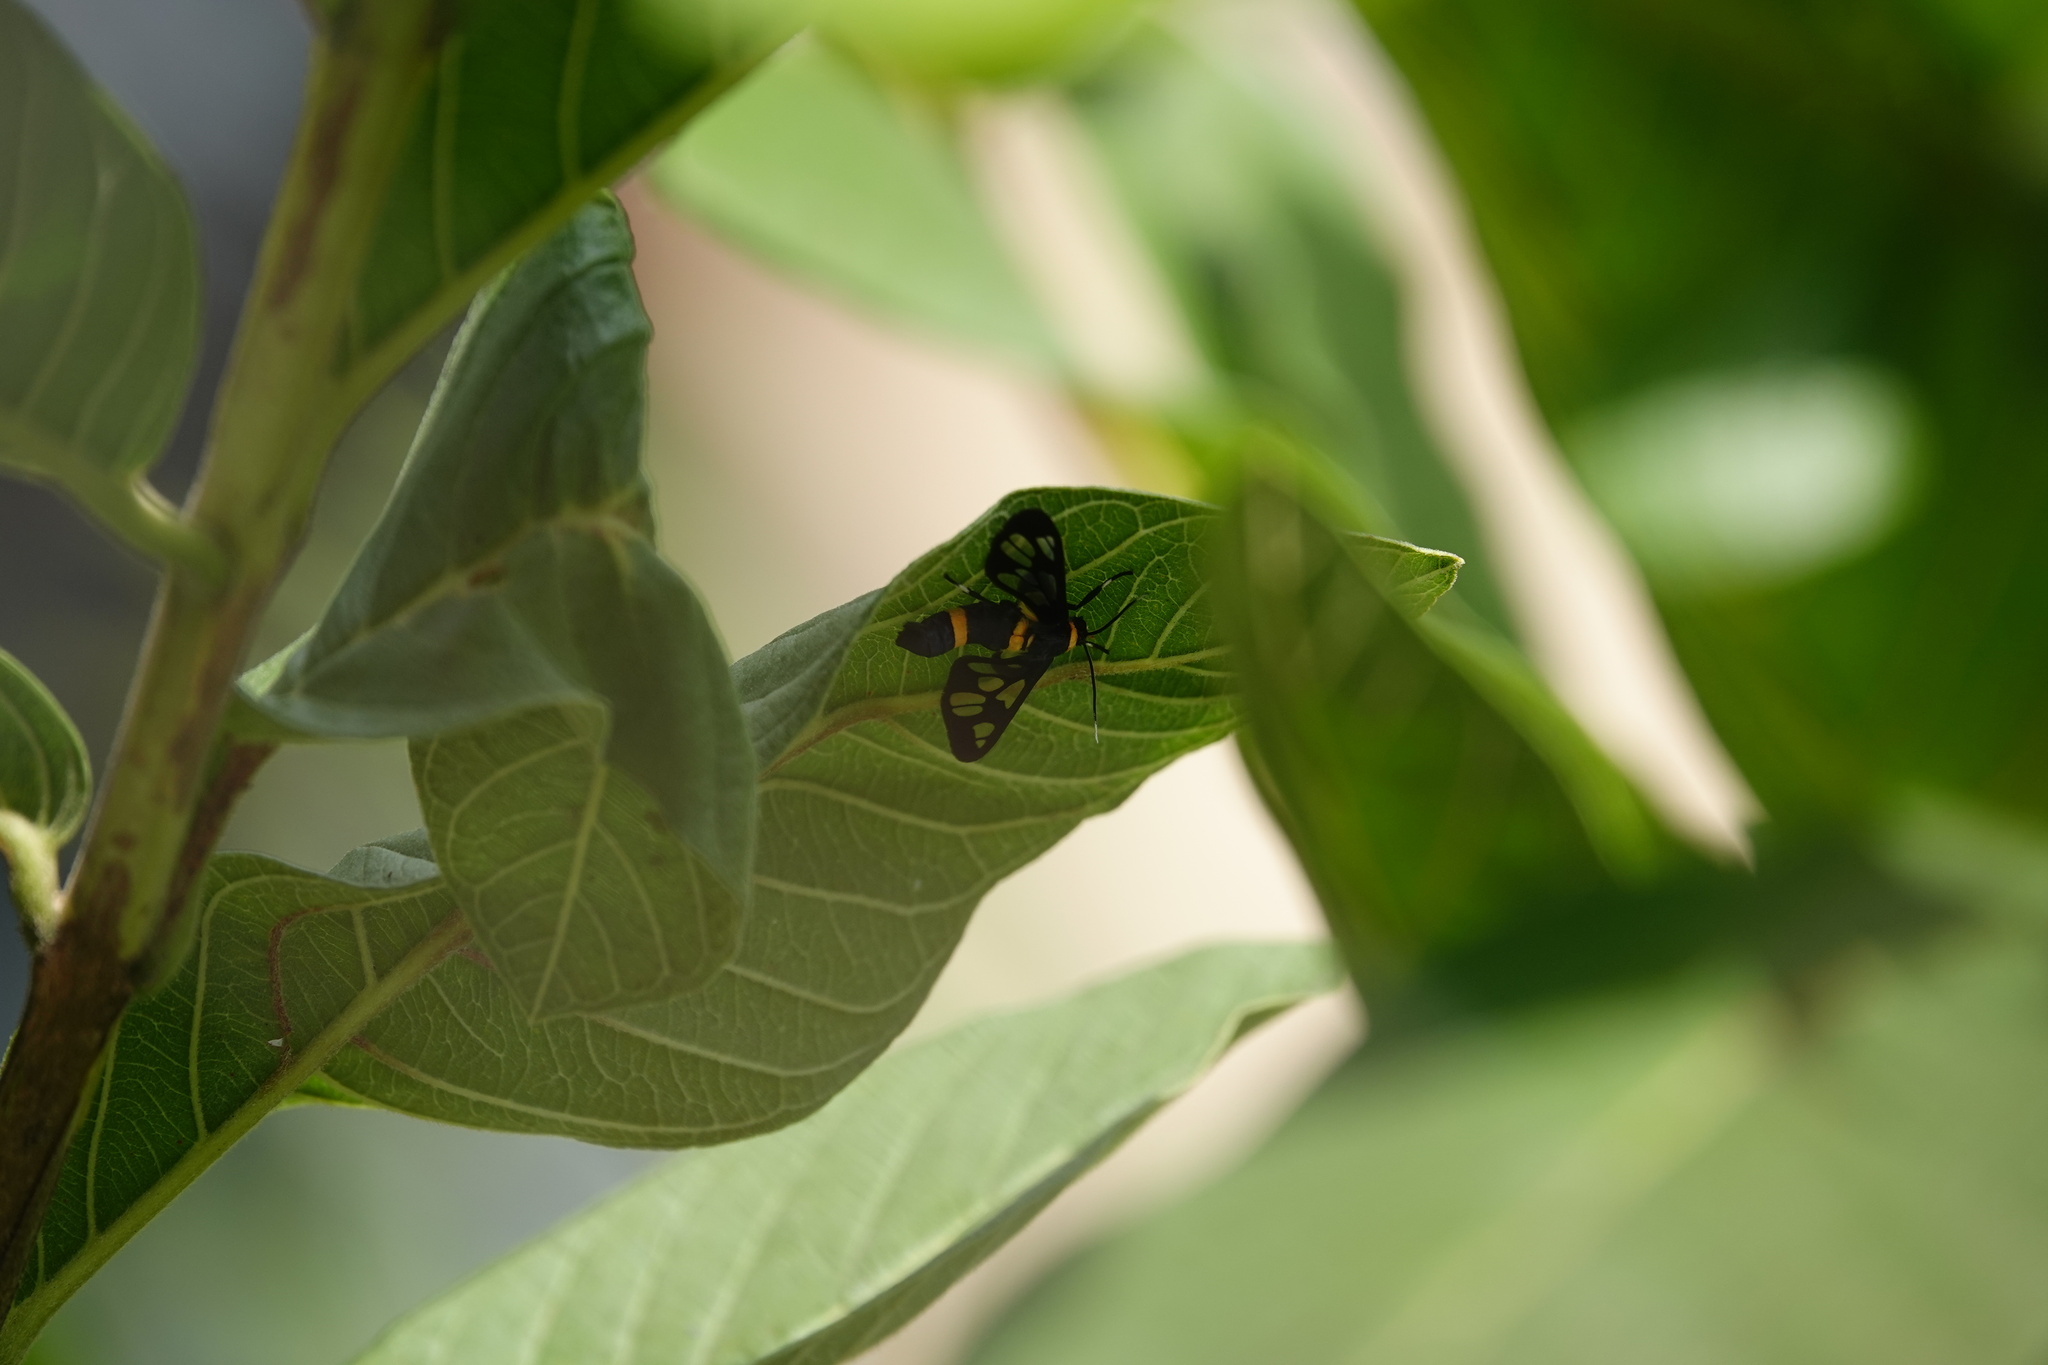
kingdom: Animalia
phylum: Arthropoda
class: Insecta
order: Lepidoptera
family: Erebidae
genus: Syntomoides
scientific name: Syntomoides imaon
